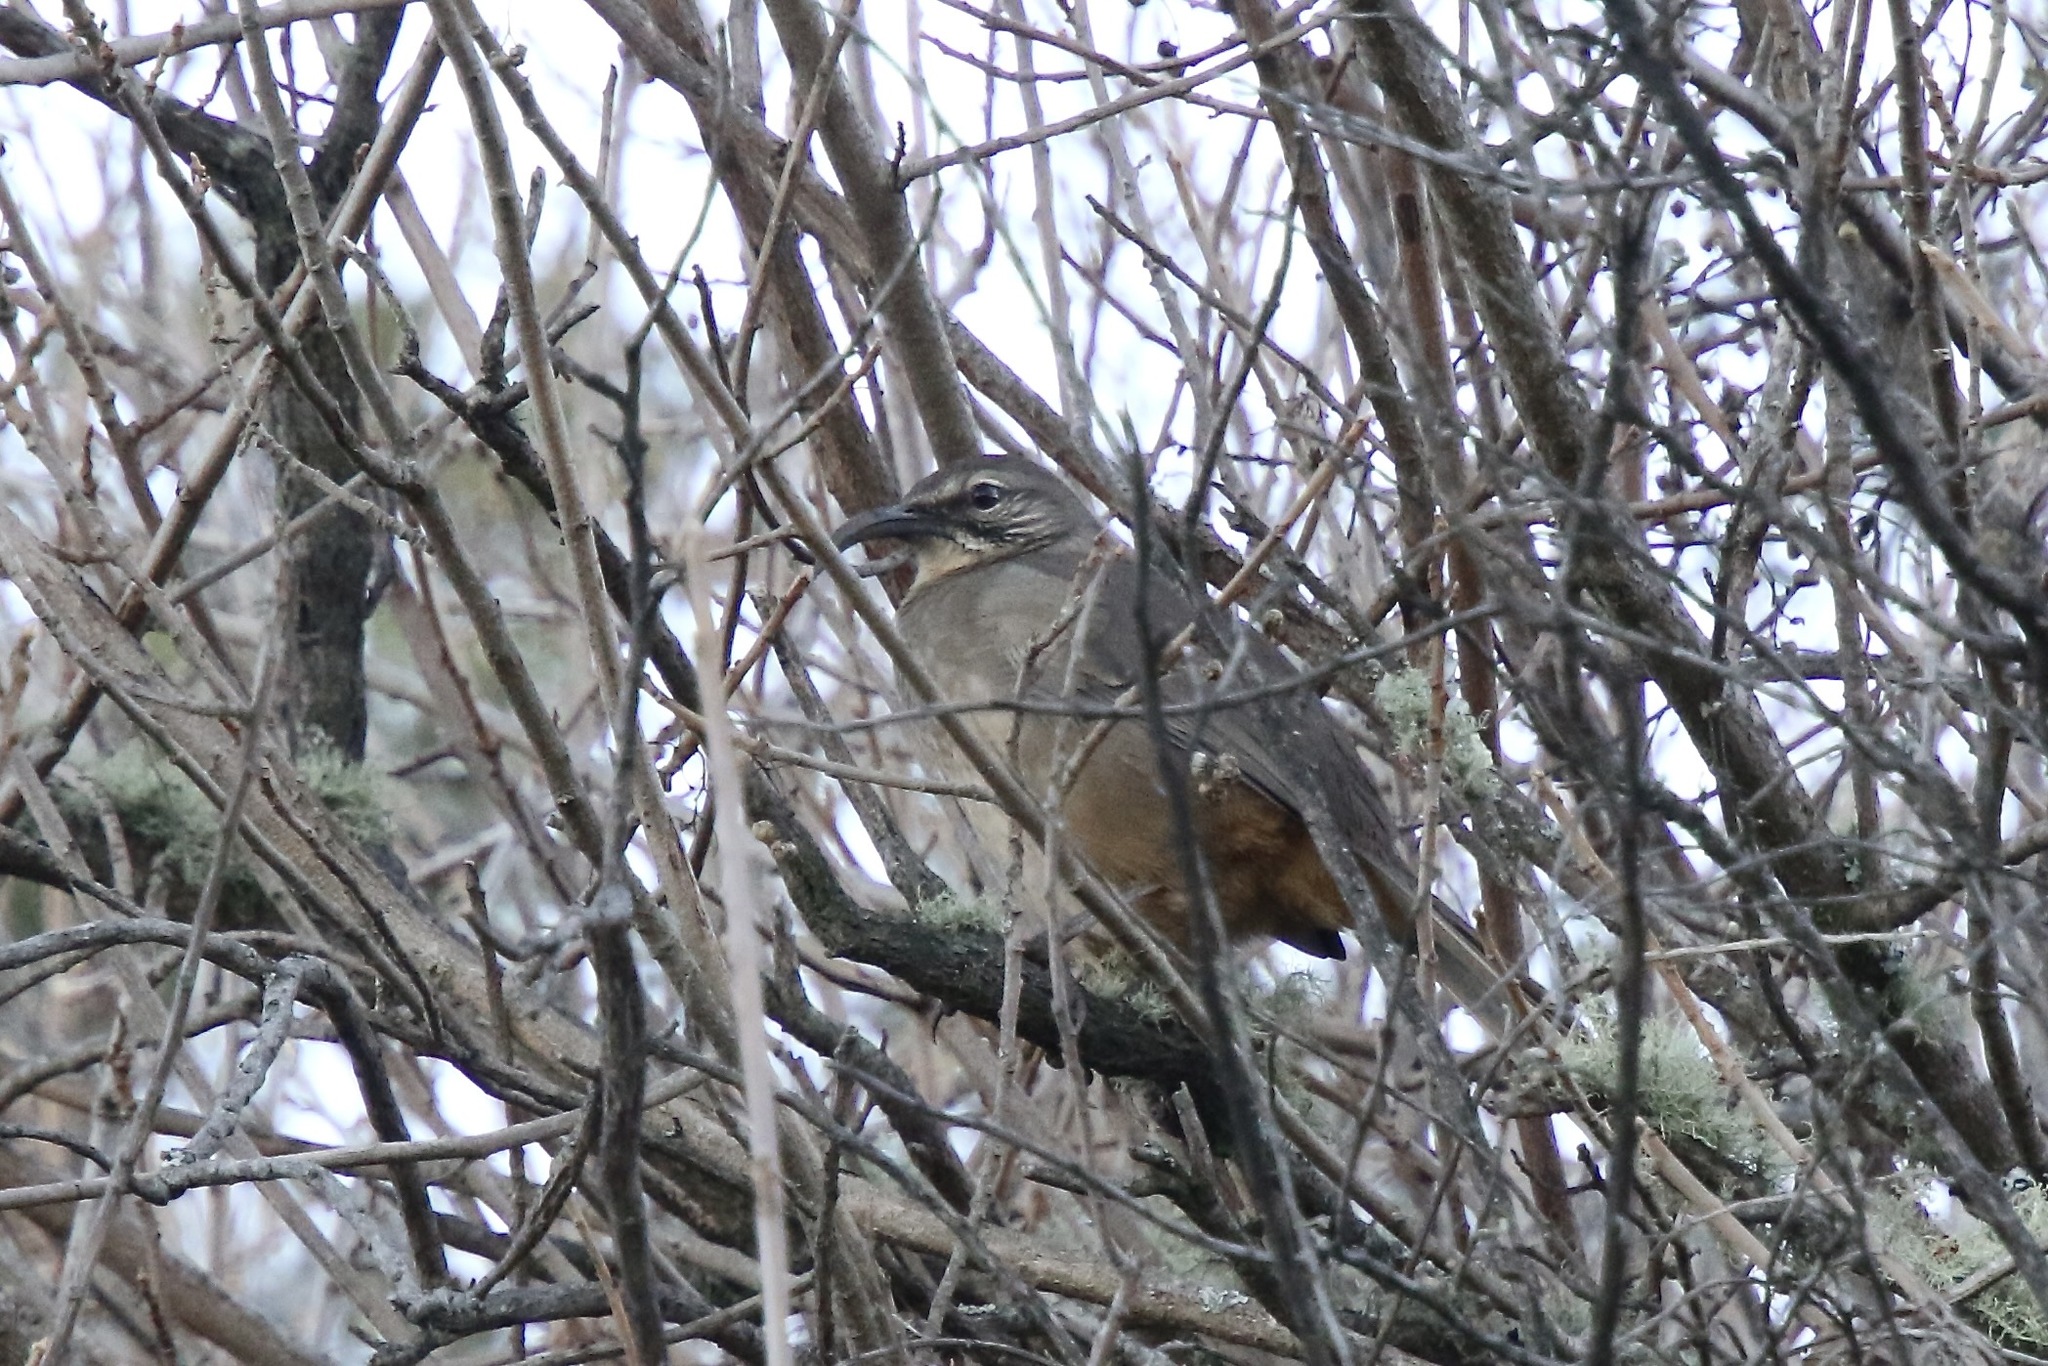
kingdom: Animalia
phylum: Chordata
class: Aves
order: Passeriformes
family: Mimidae
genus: Toxostoma
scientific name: Toxostoma redivivum
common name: California thrasher
